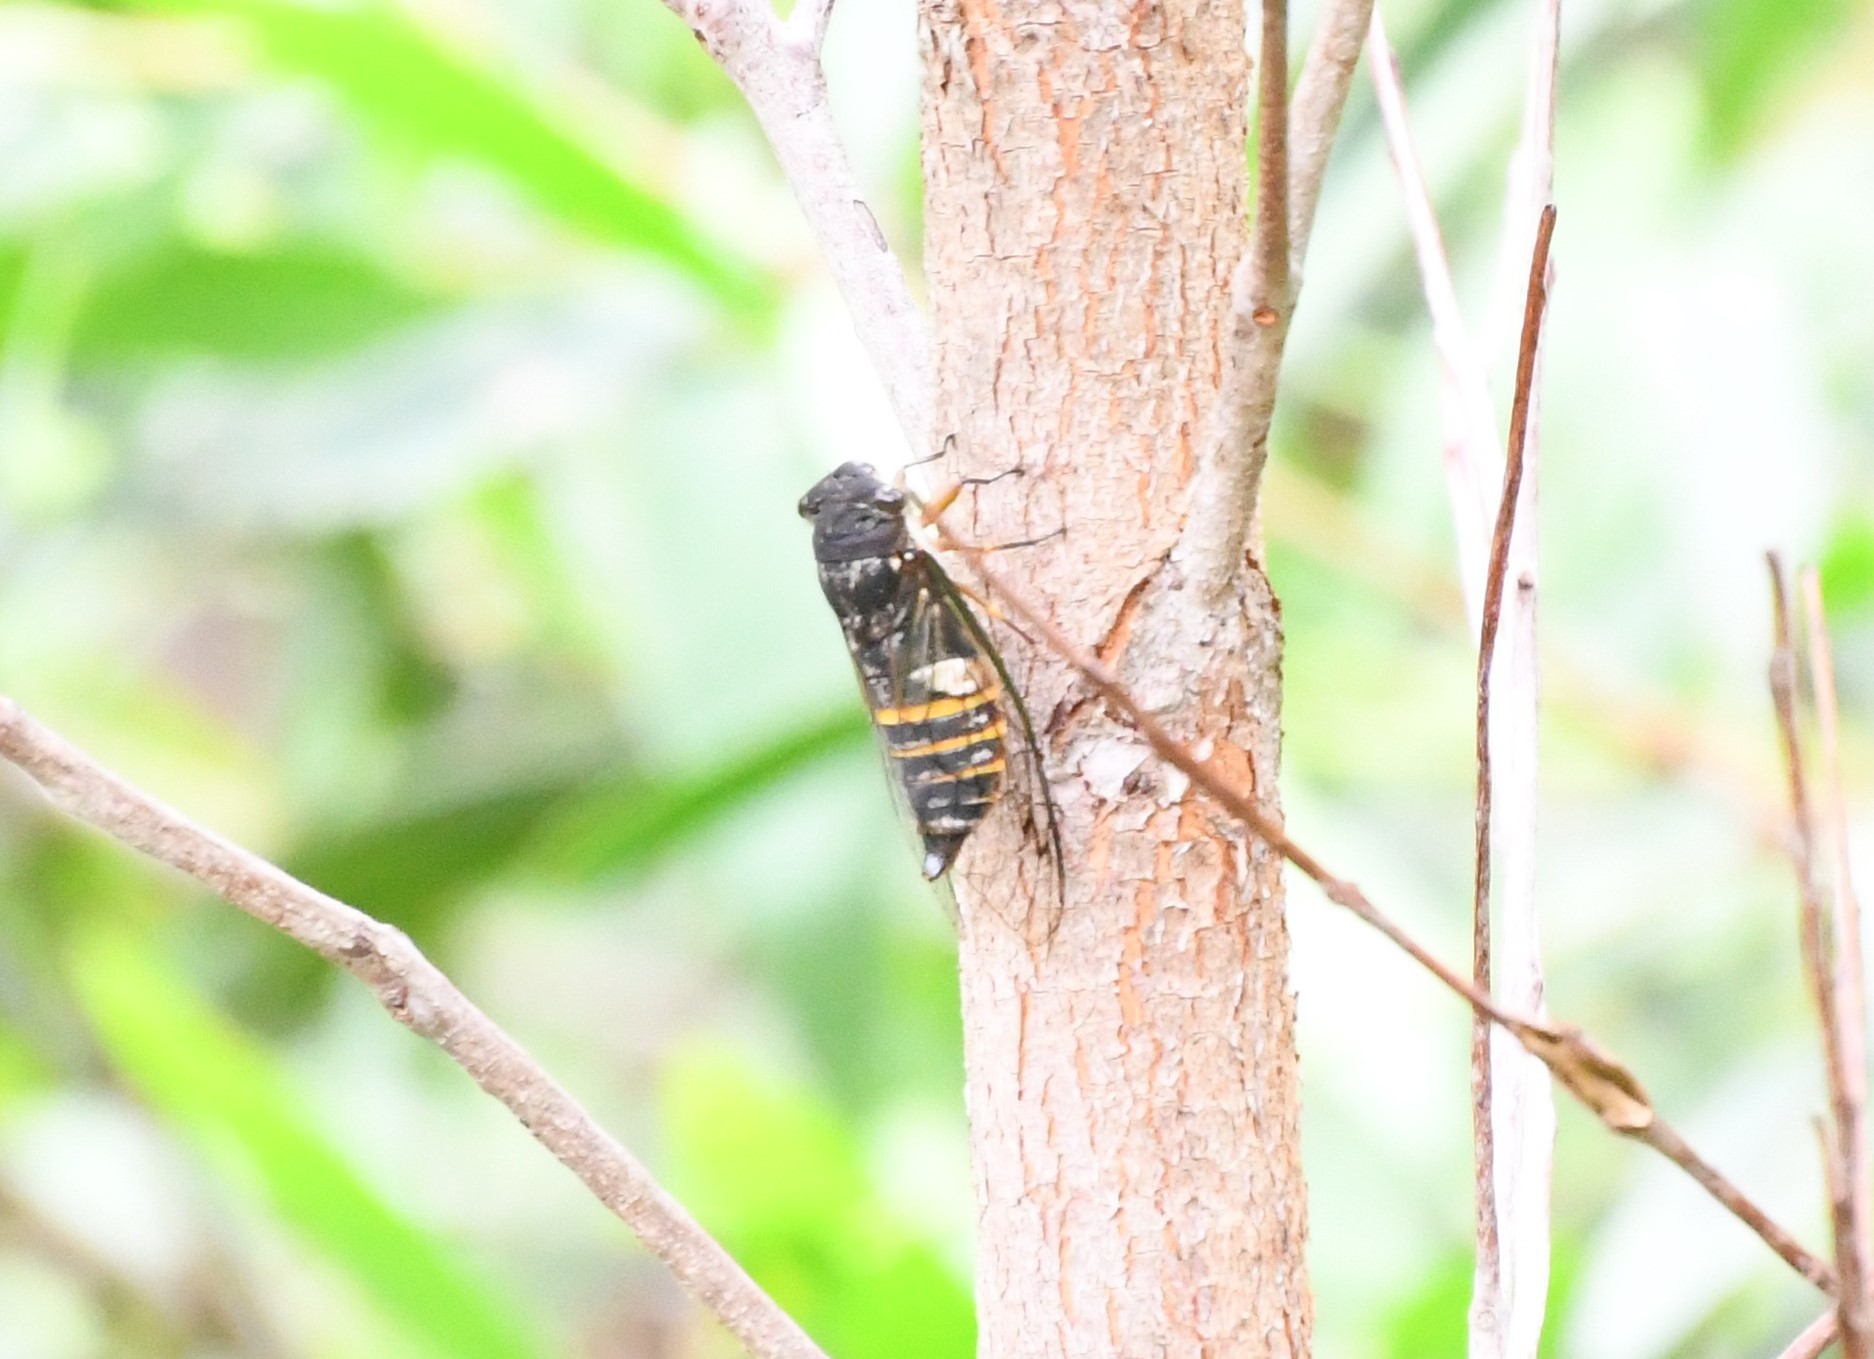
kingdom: Animalia
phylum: Arthropoda
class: Insecta
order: Hemiptera
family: Cicadidae
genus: Psaltoda
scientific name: Psaltoda plaga
